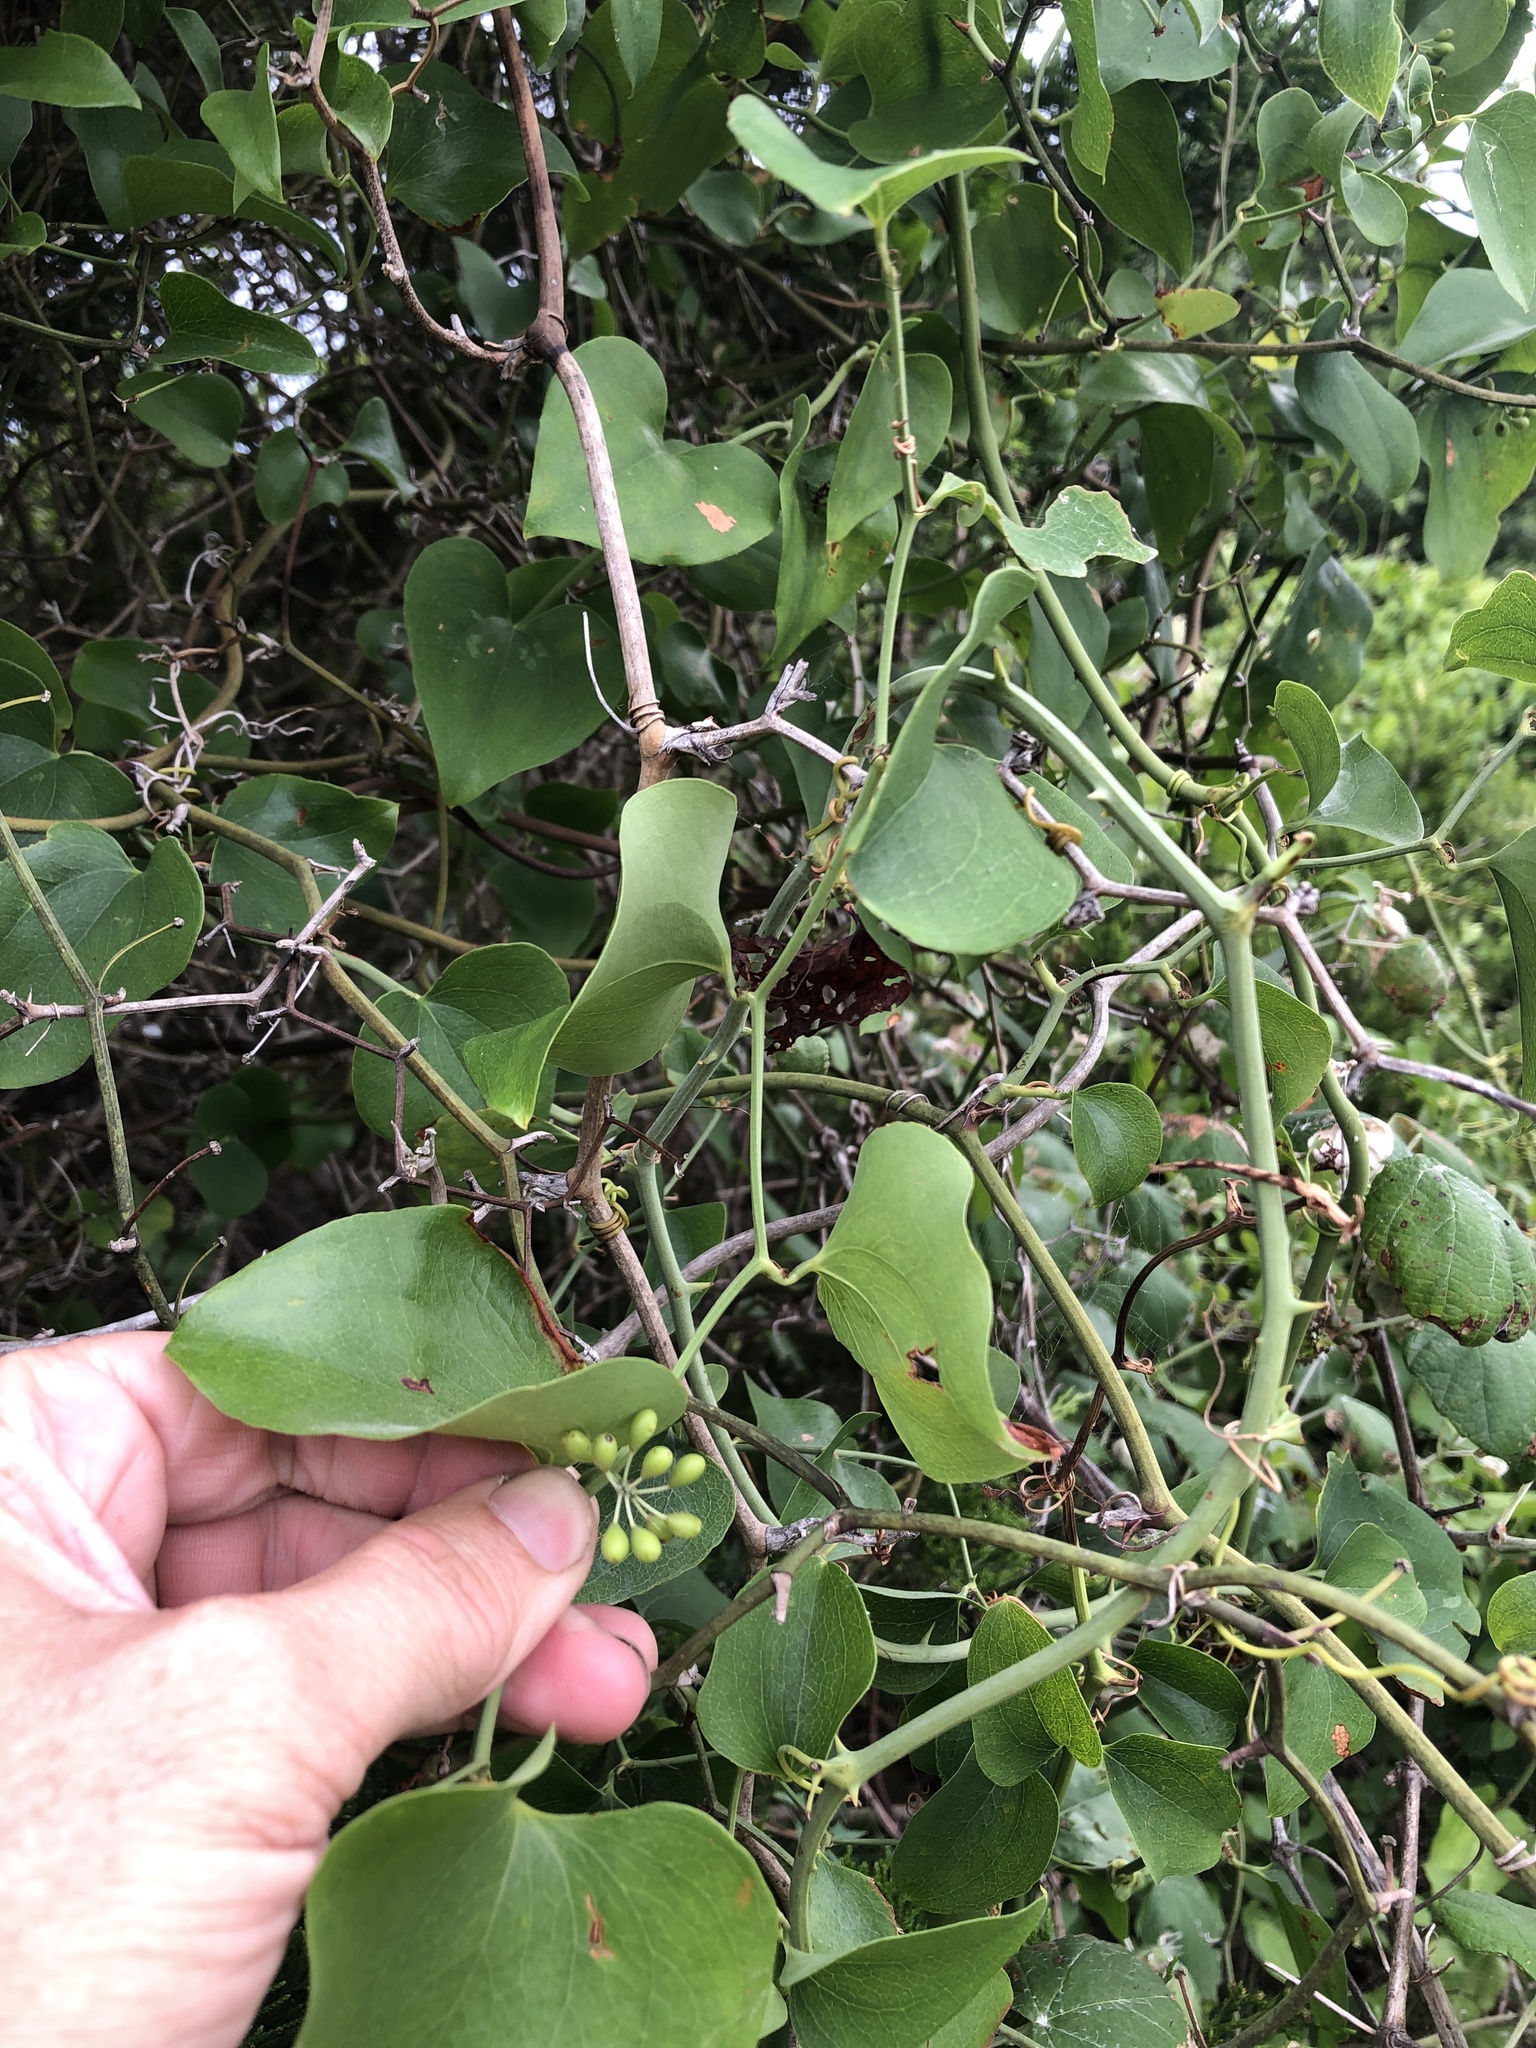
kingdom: Plantae
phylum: Tracheophyta
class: Liliopsida
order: Liliales
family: Smilacaceae
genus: Smilax
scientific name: Smilax bona-nox
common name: Catbrier
